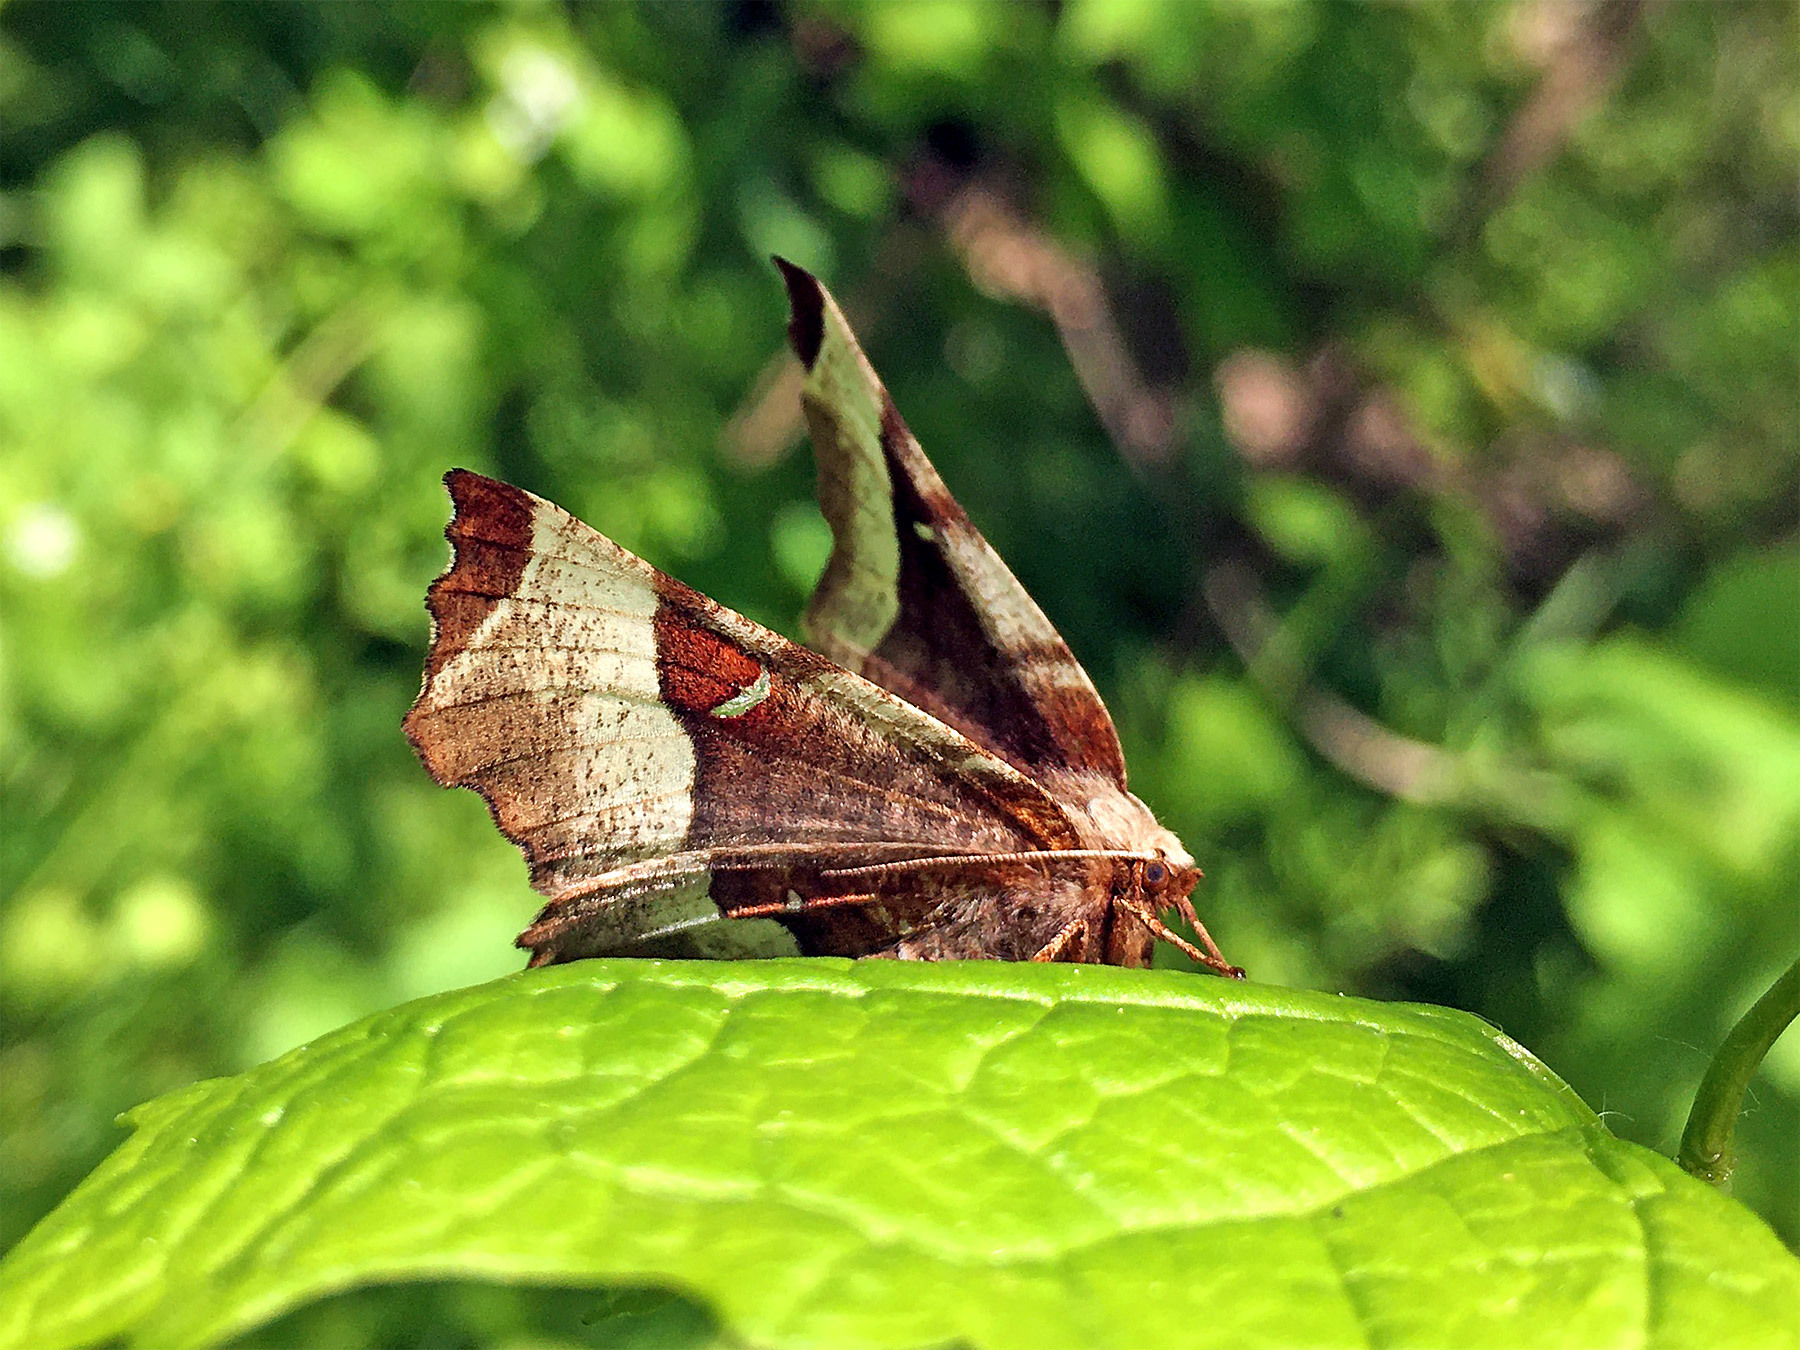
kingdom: Animalia
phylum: Arthropoda
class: Insecta
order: Lepidoptera
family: Geometridae
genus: Selenia
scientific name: Selenia tetralunaria
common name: Purple thorn
